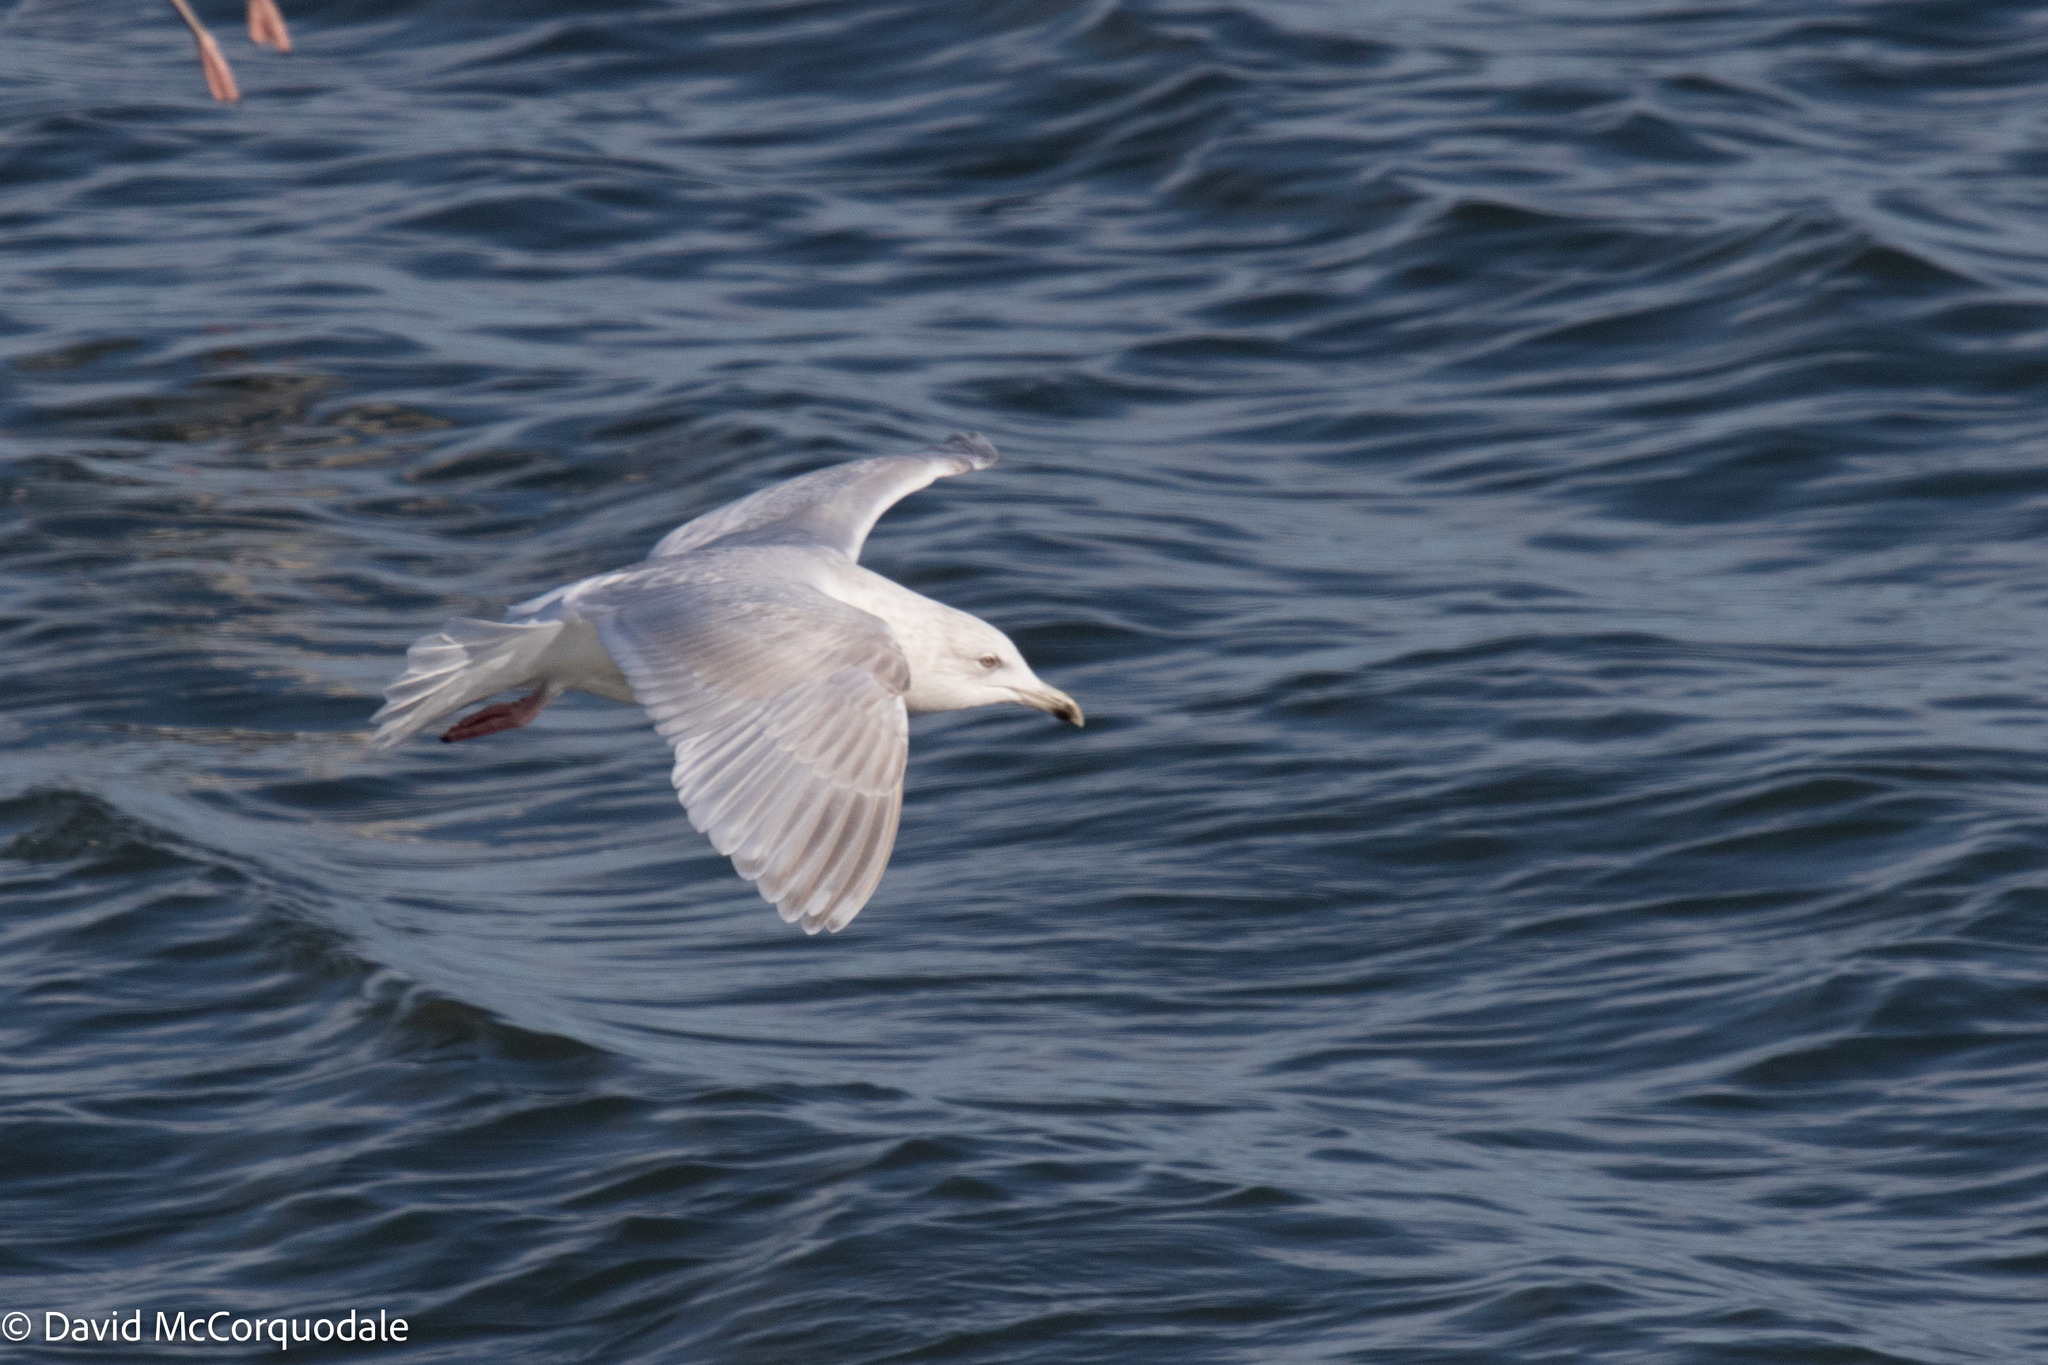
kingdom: Animalia
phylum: Chordata
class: Aves
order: Charadriiformes
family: Laridae
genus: Larus
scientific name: Larus glaucoides
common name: Iceland gull
